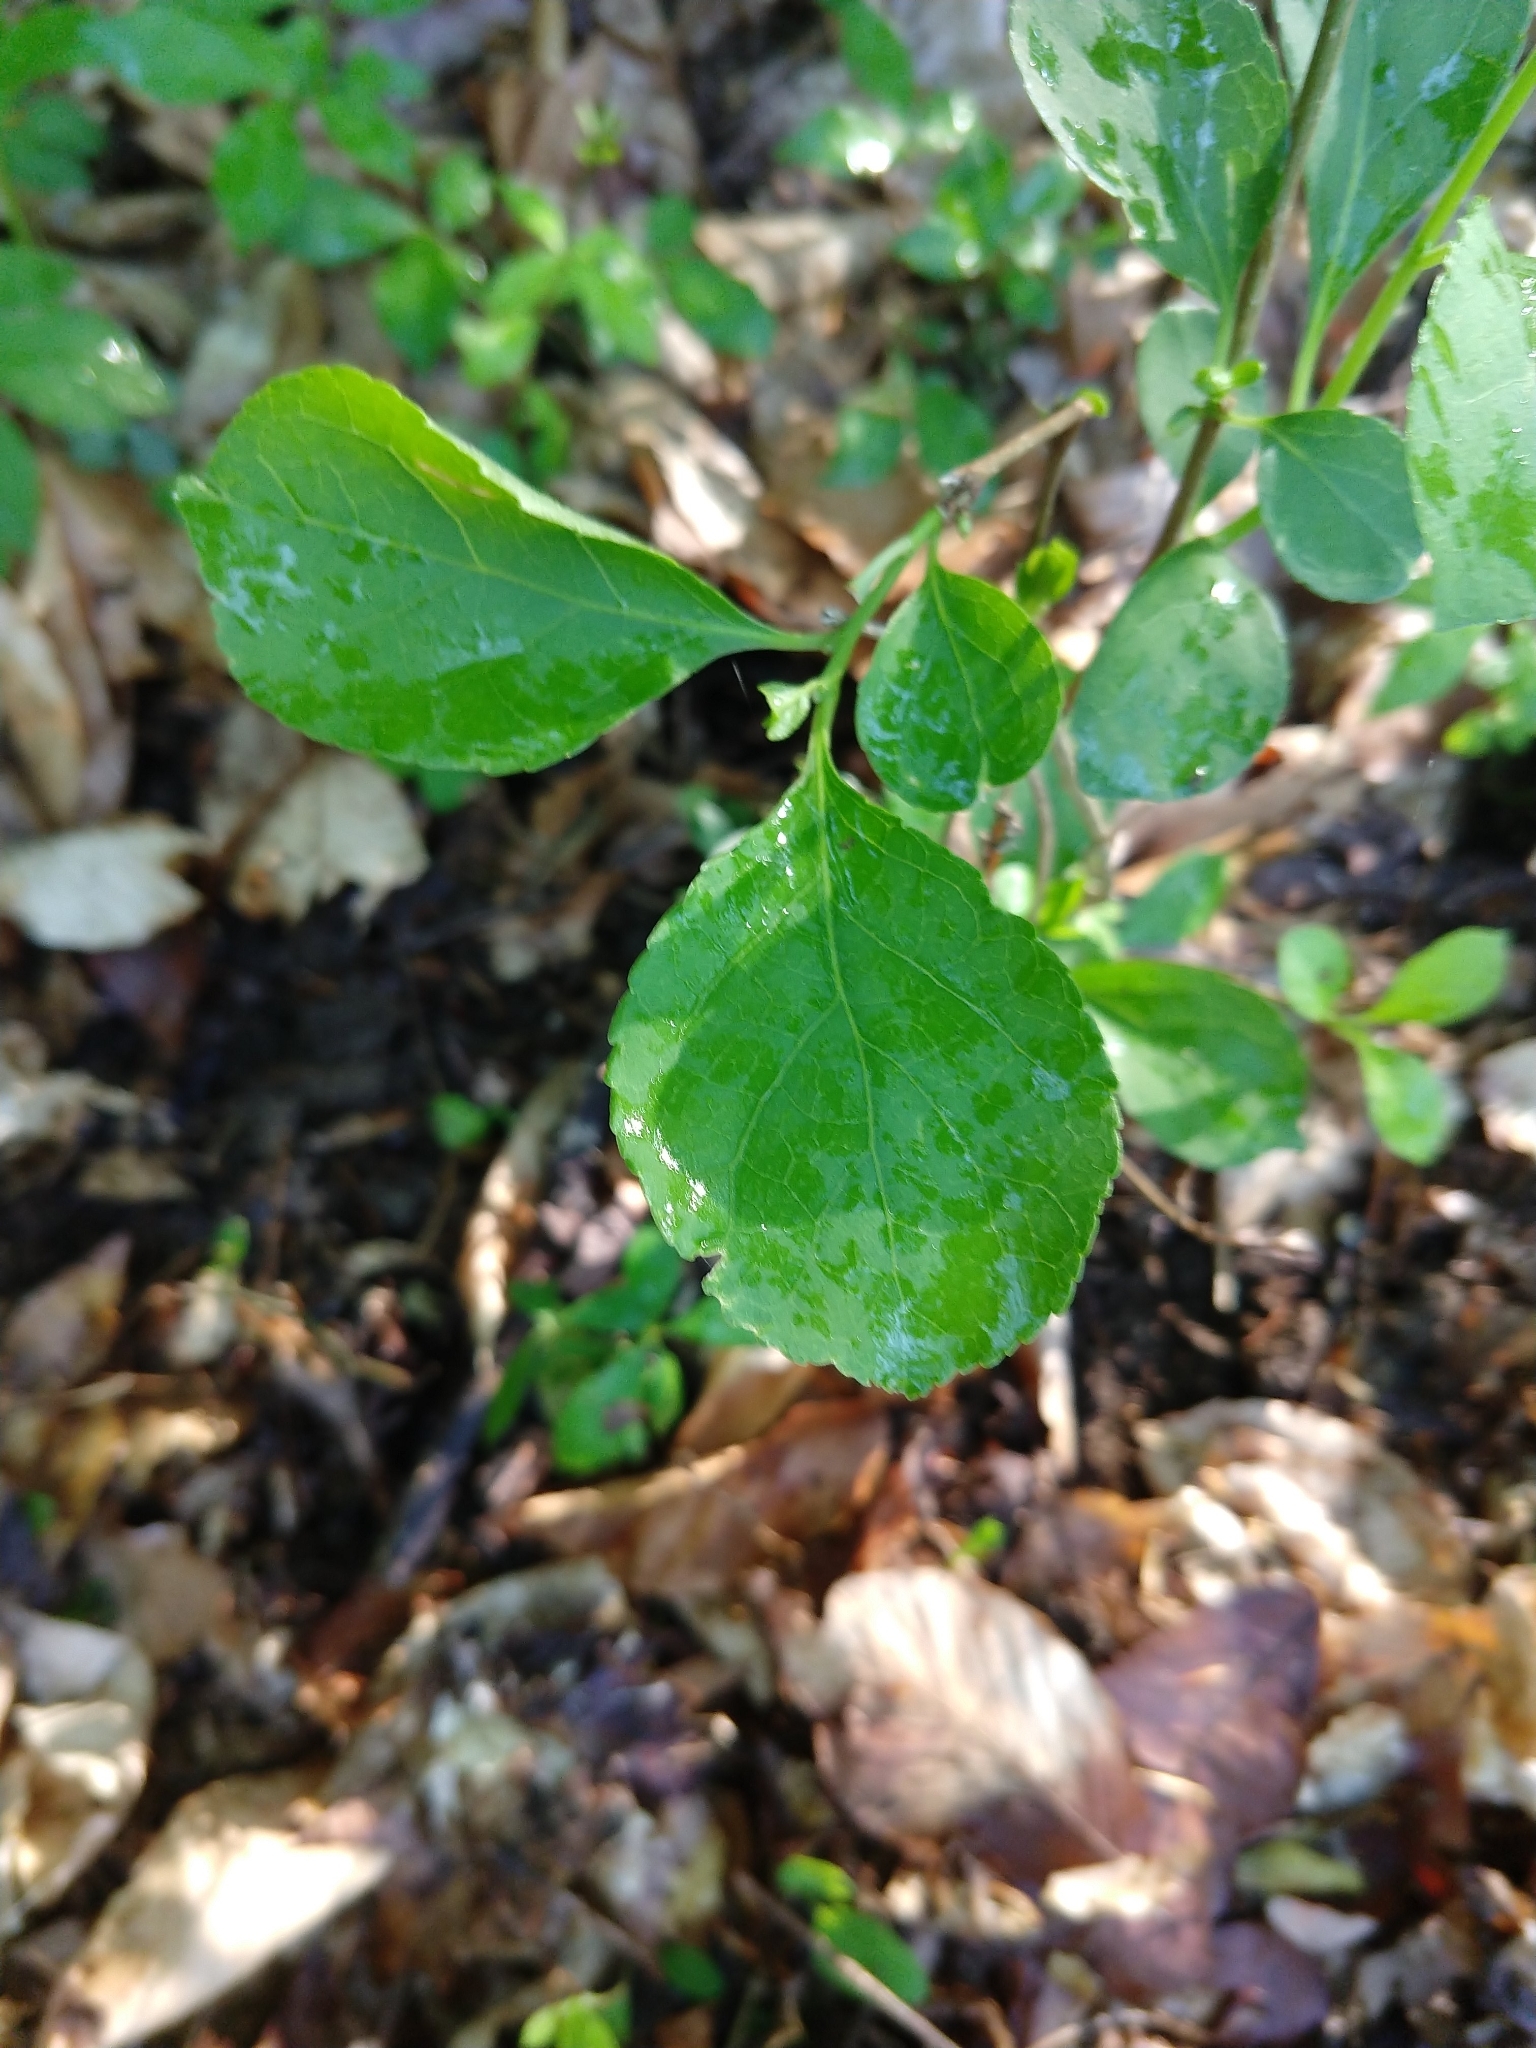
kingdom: Plantae
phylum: Tracheophyta
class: Magnoliopsida
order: Celastrales
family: Celastraceae
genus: Celastrus
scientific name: Celastrus orbiculatus
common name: Oriental bittersweet
